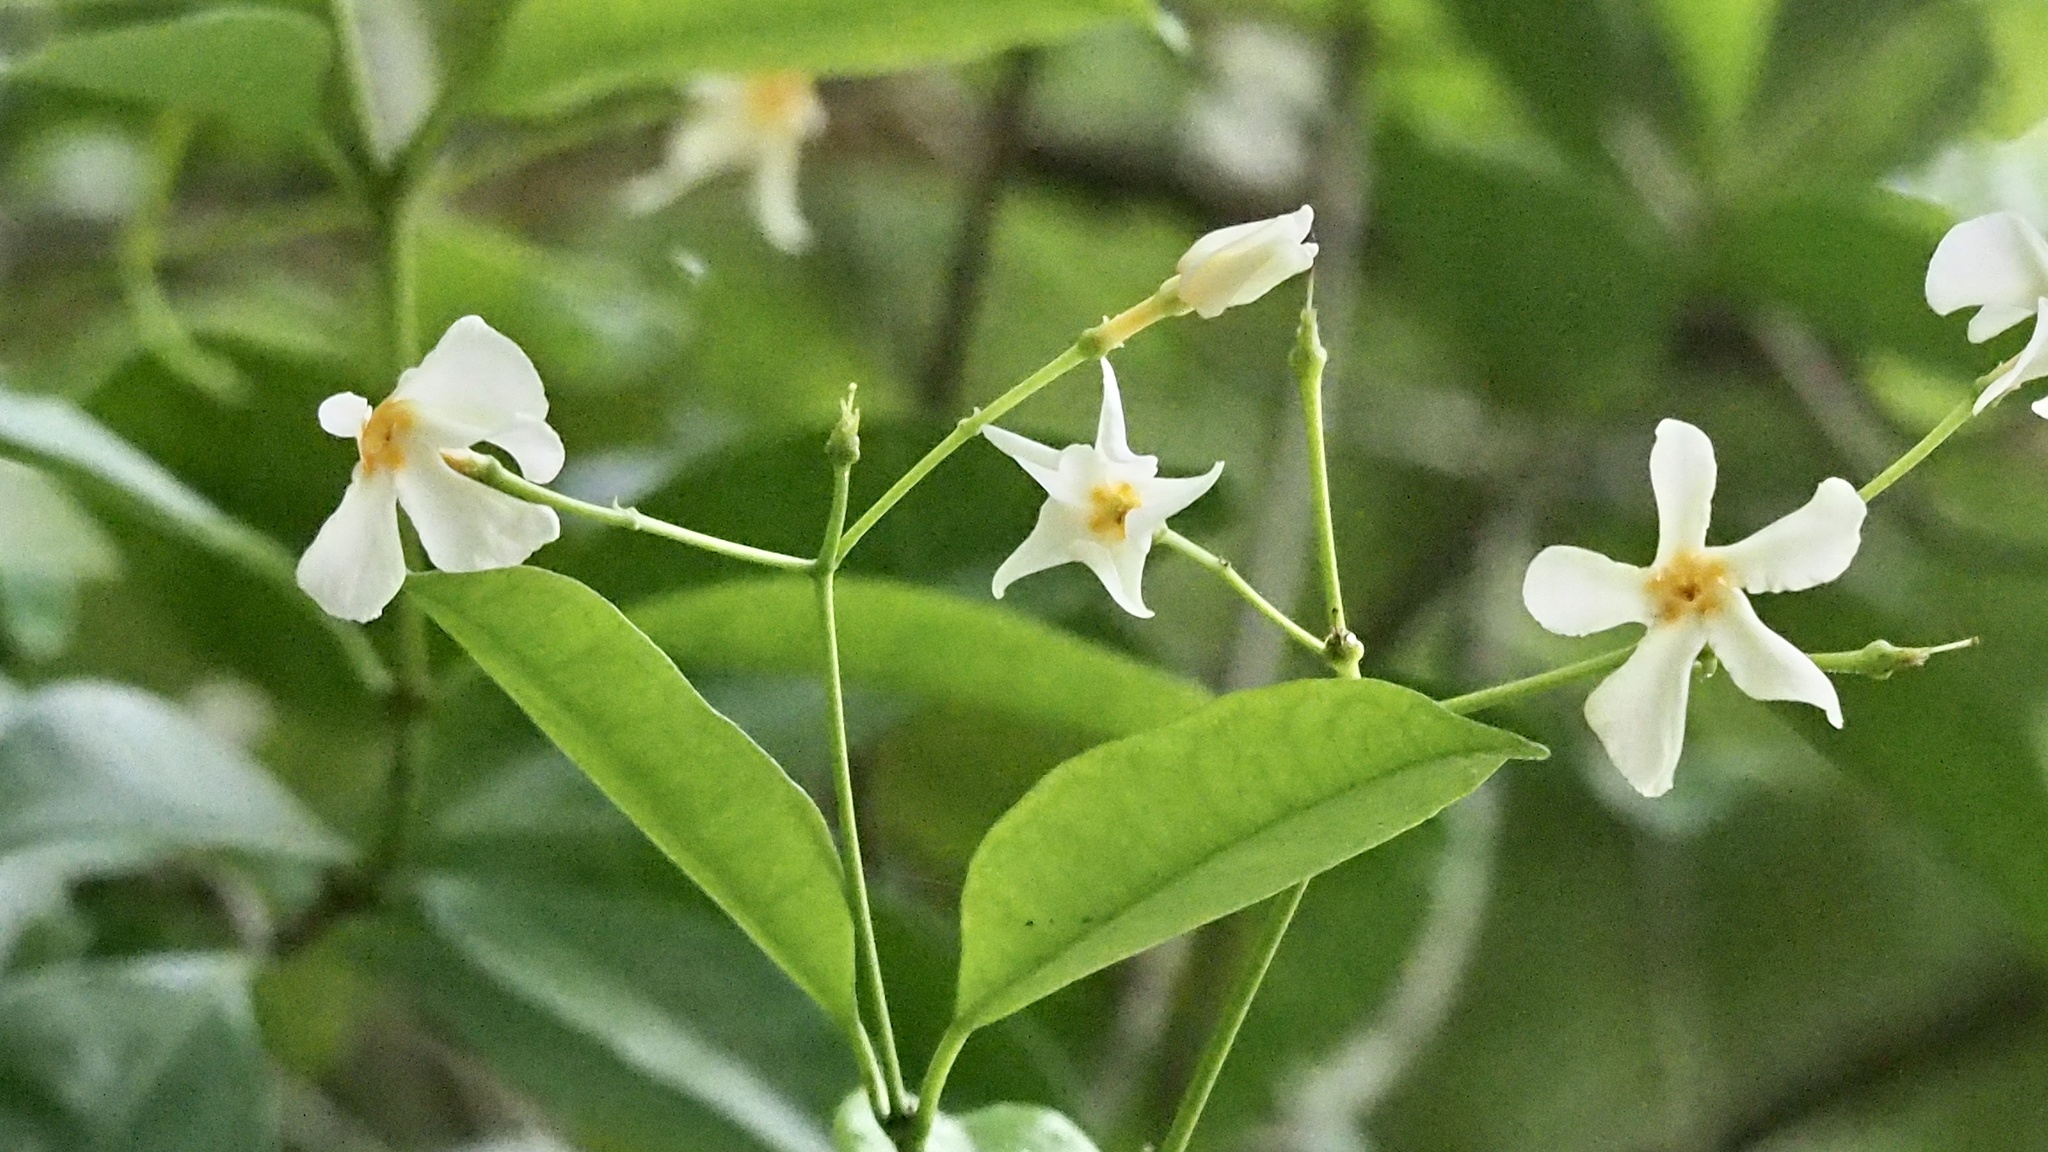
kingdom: Plantae
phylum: Tracheophyta
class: Magnoliopsida
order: Gentianales
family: Apocynaceae
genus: Trachelospermum
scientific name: Trachelospermum asiaticum
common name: Asiatic jasmine
